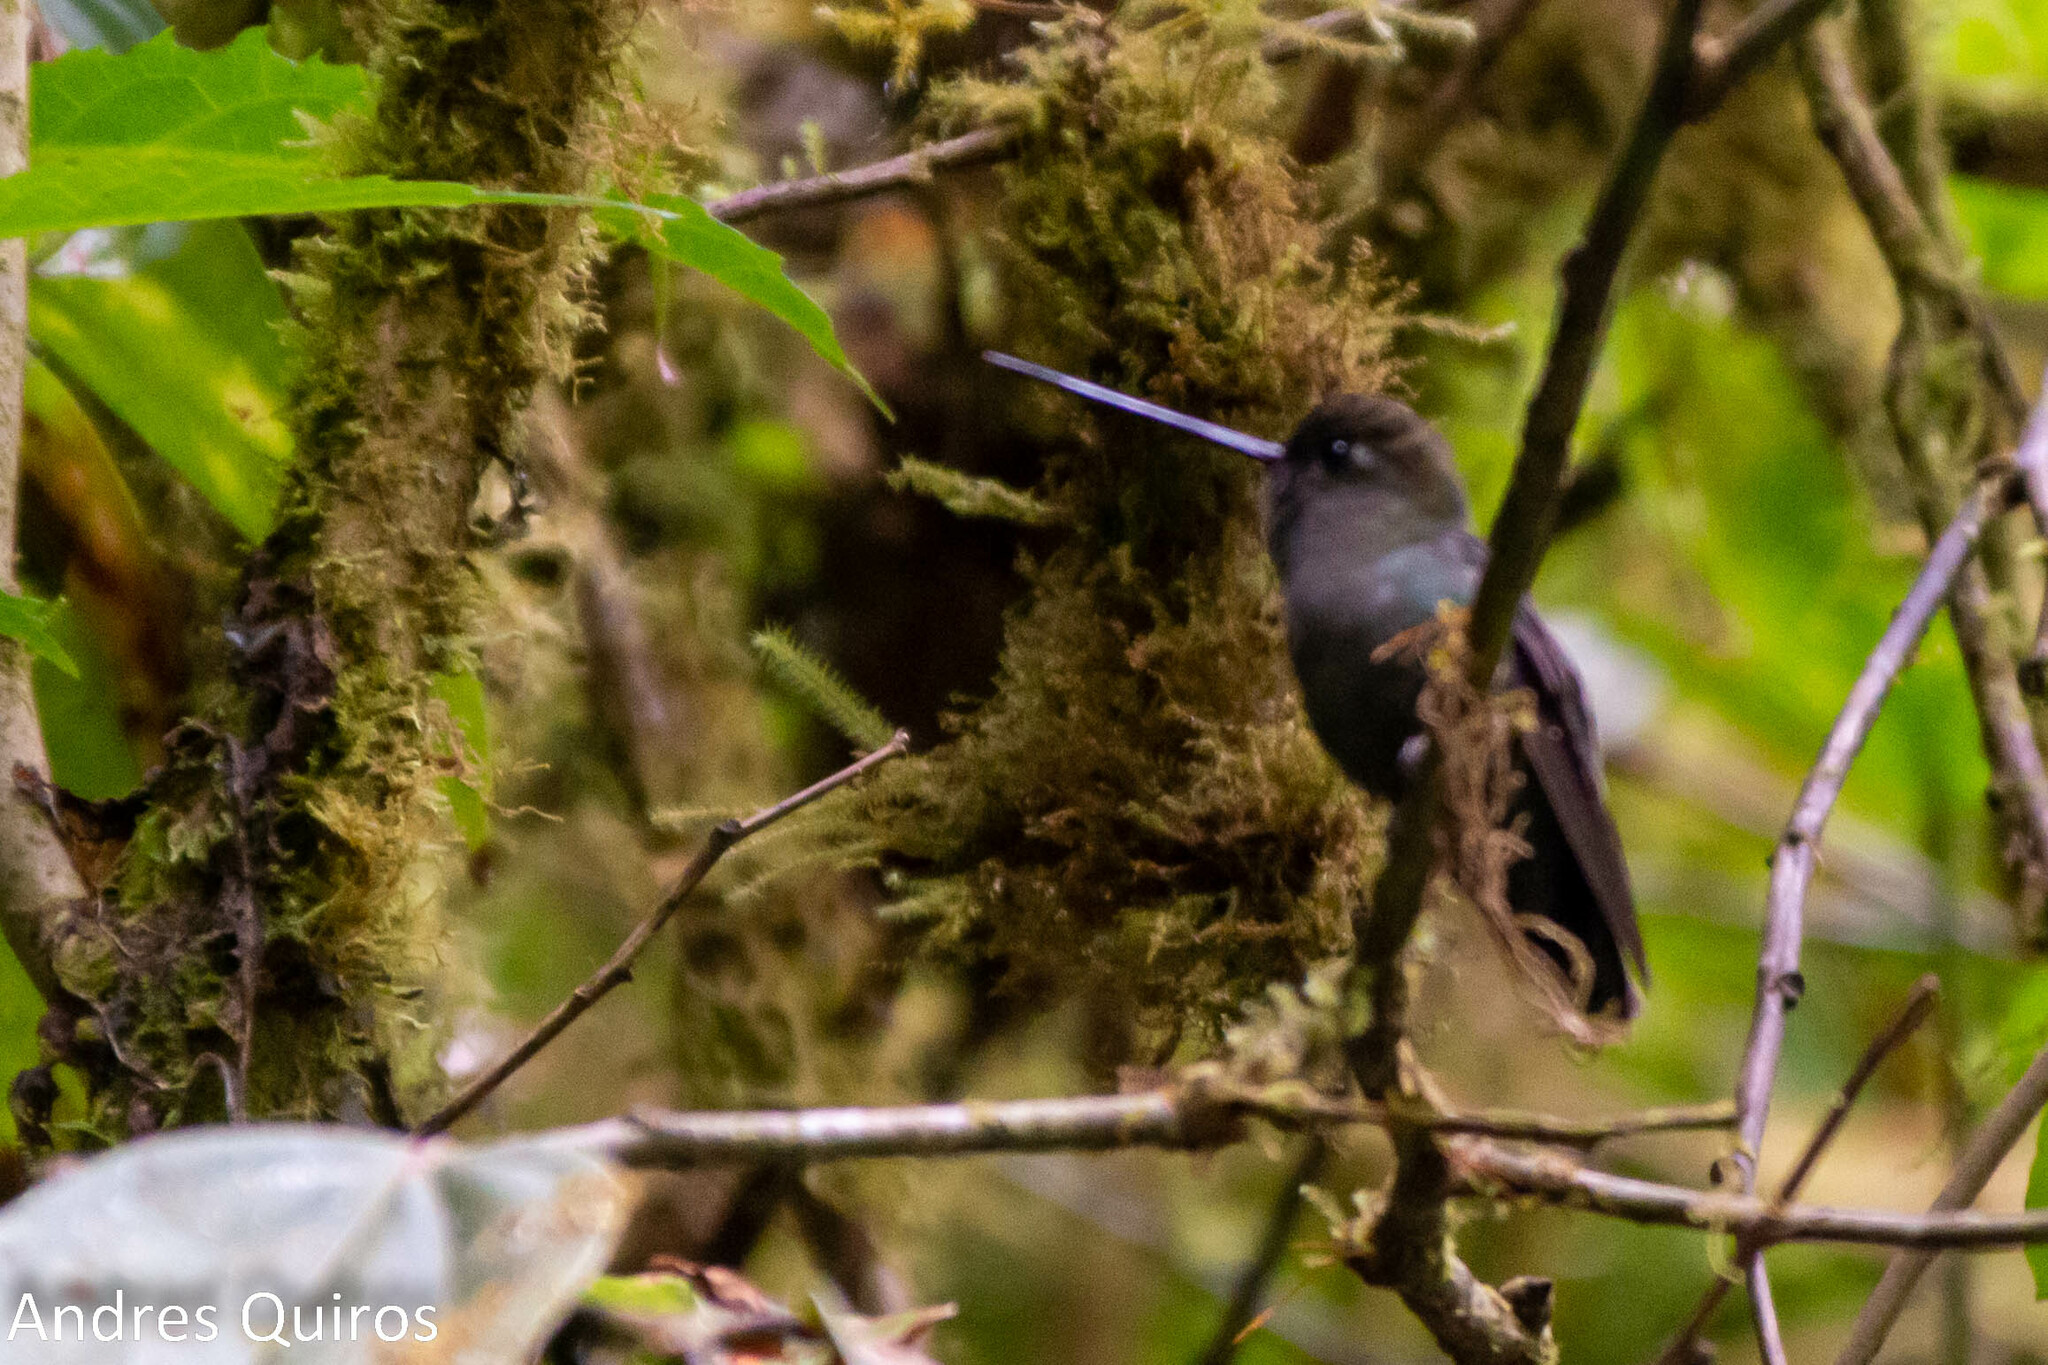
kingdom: Animalia
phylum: Chordata
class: Aves
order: Apodiformes
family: Trochilidae
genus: Doryfera
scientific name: Doryfera ludovicae
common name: Green-fronted lancebill
